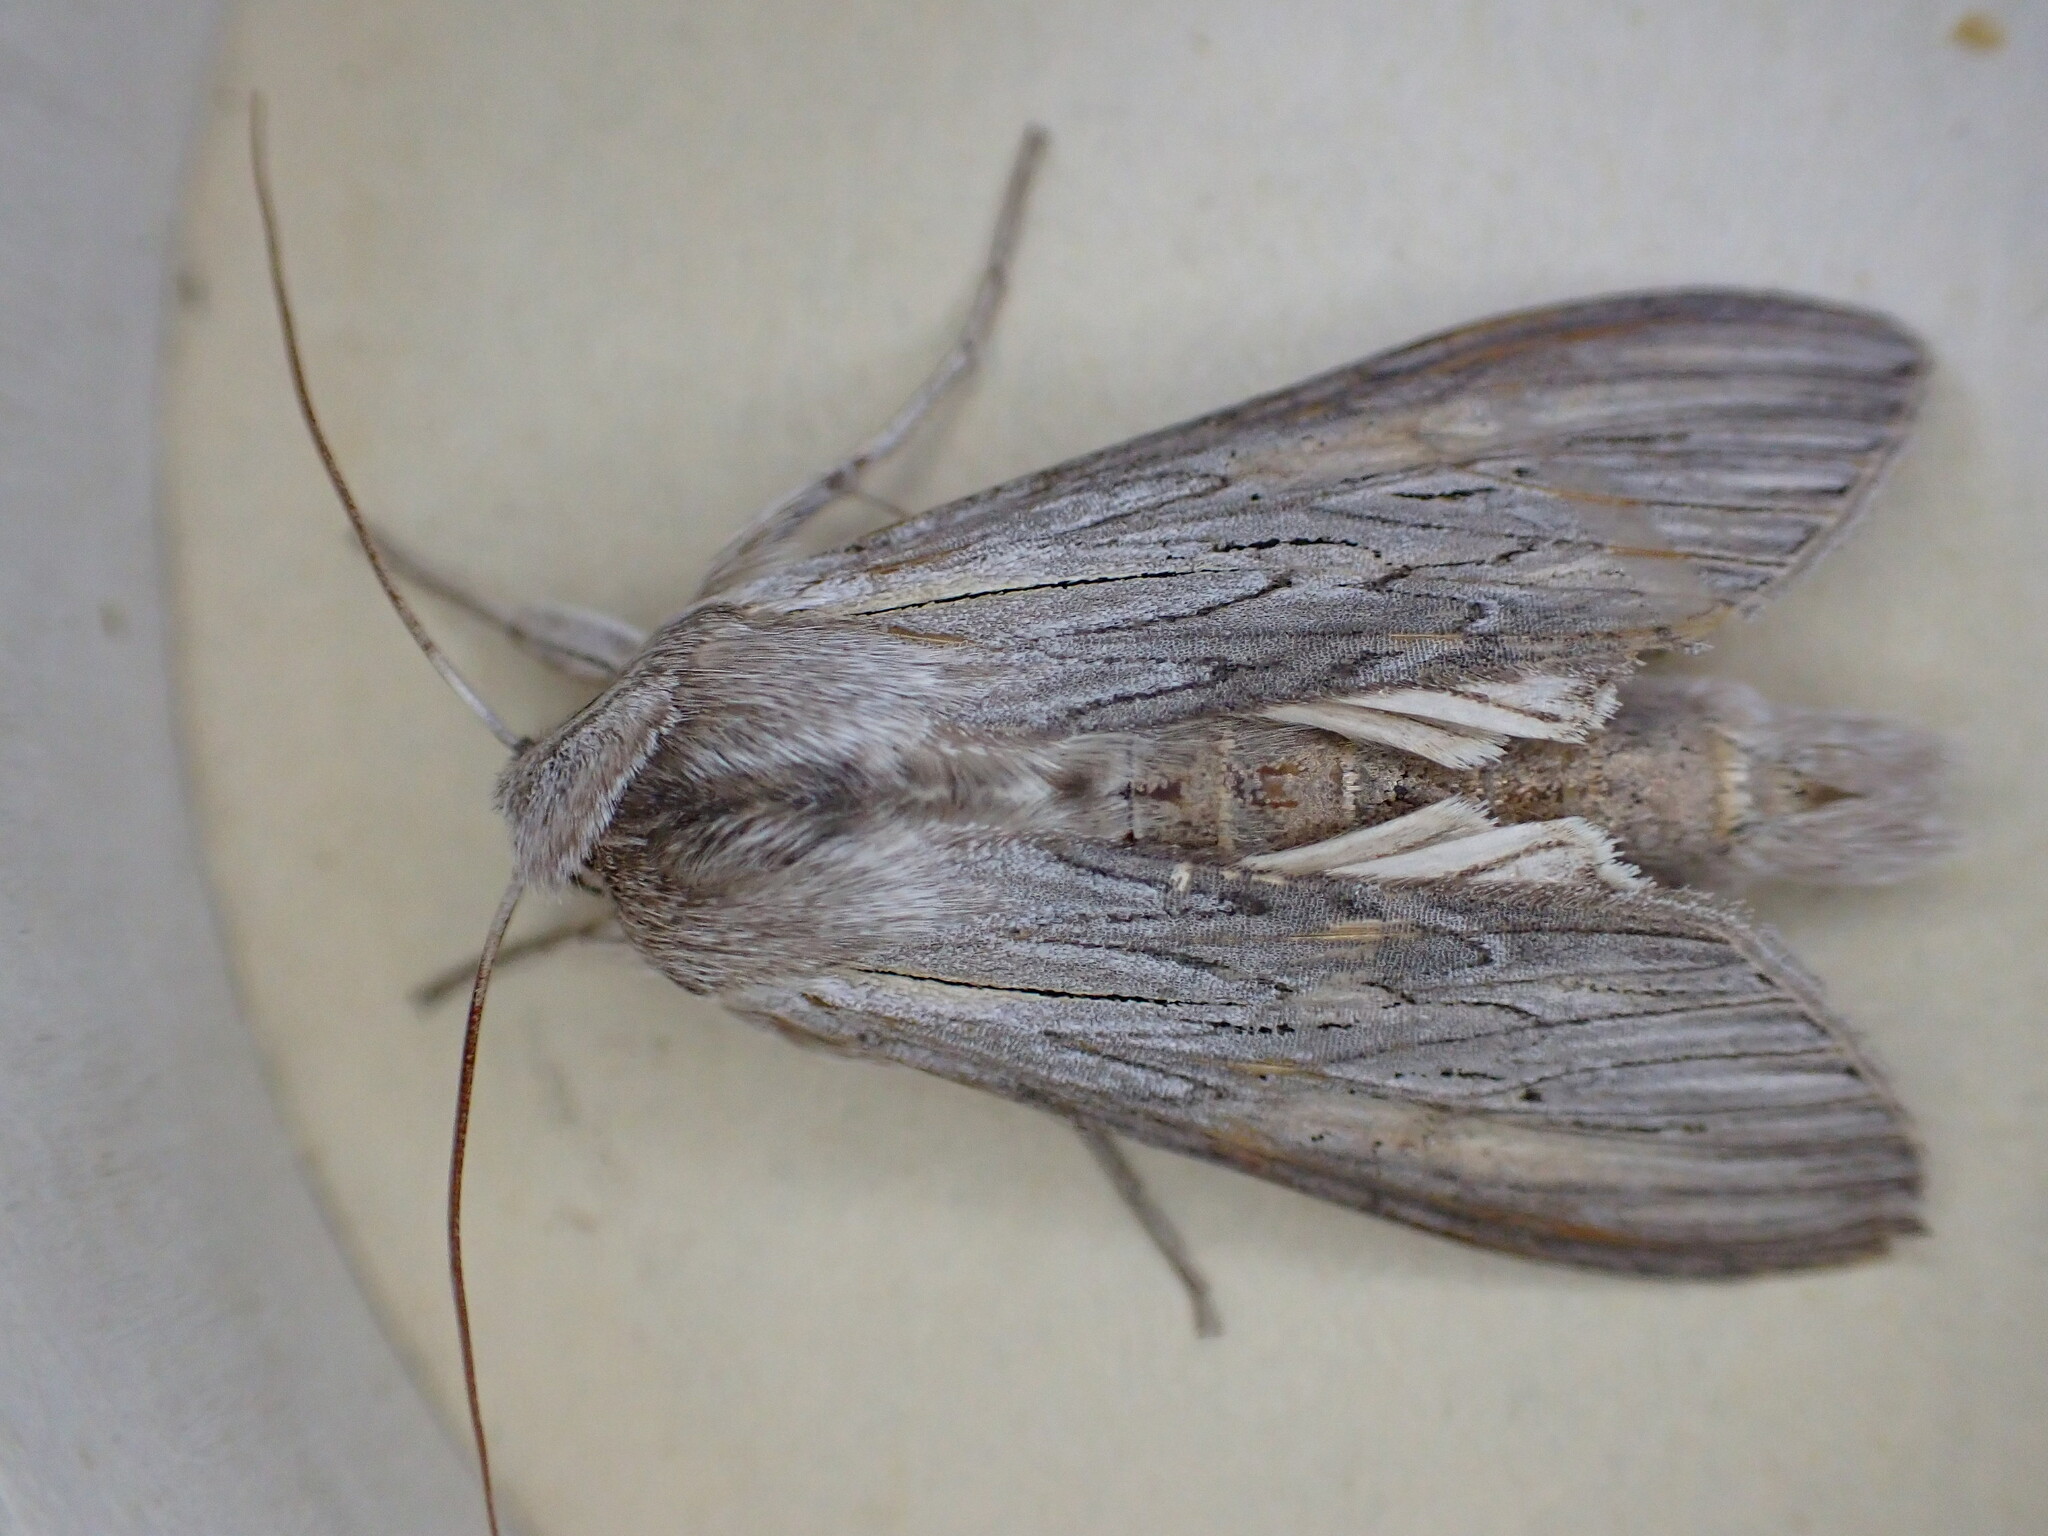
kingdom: Animalia
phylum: Arthropoda
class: Insecta
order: Lepidoptera
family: Noctuidae
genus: Cucullia
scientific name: Cucullia umbratica
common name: Shark
